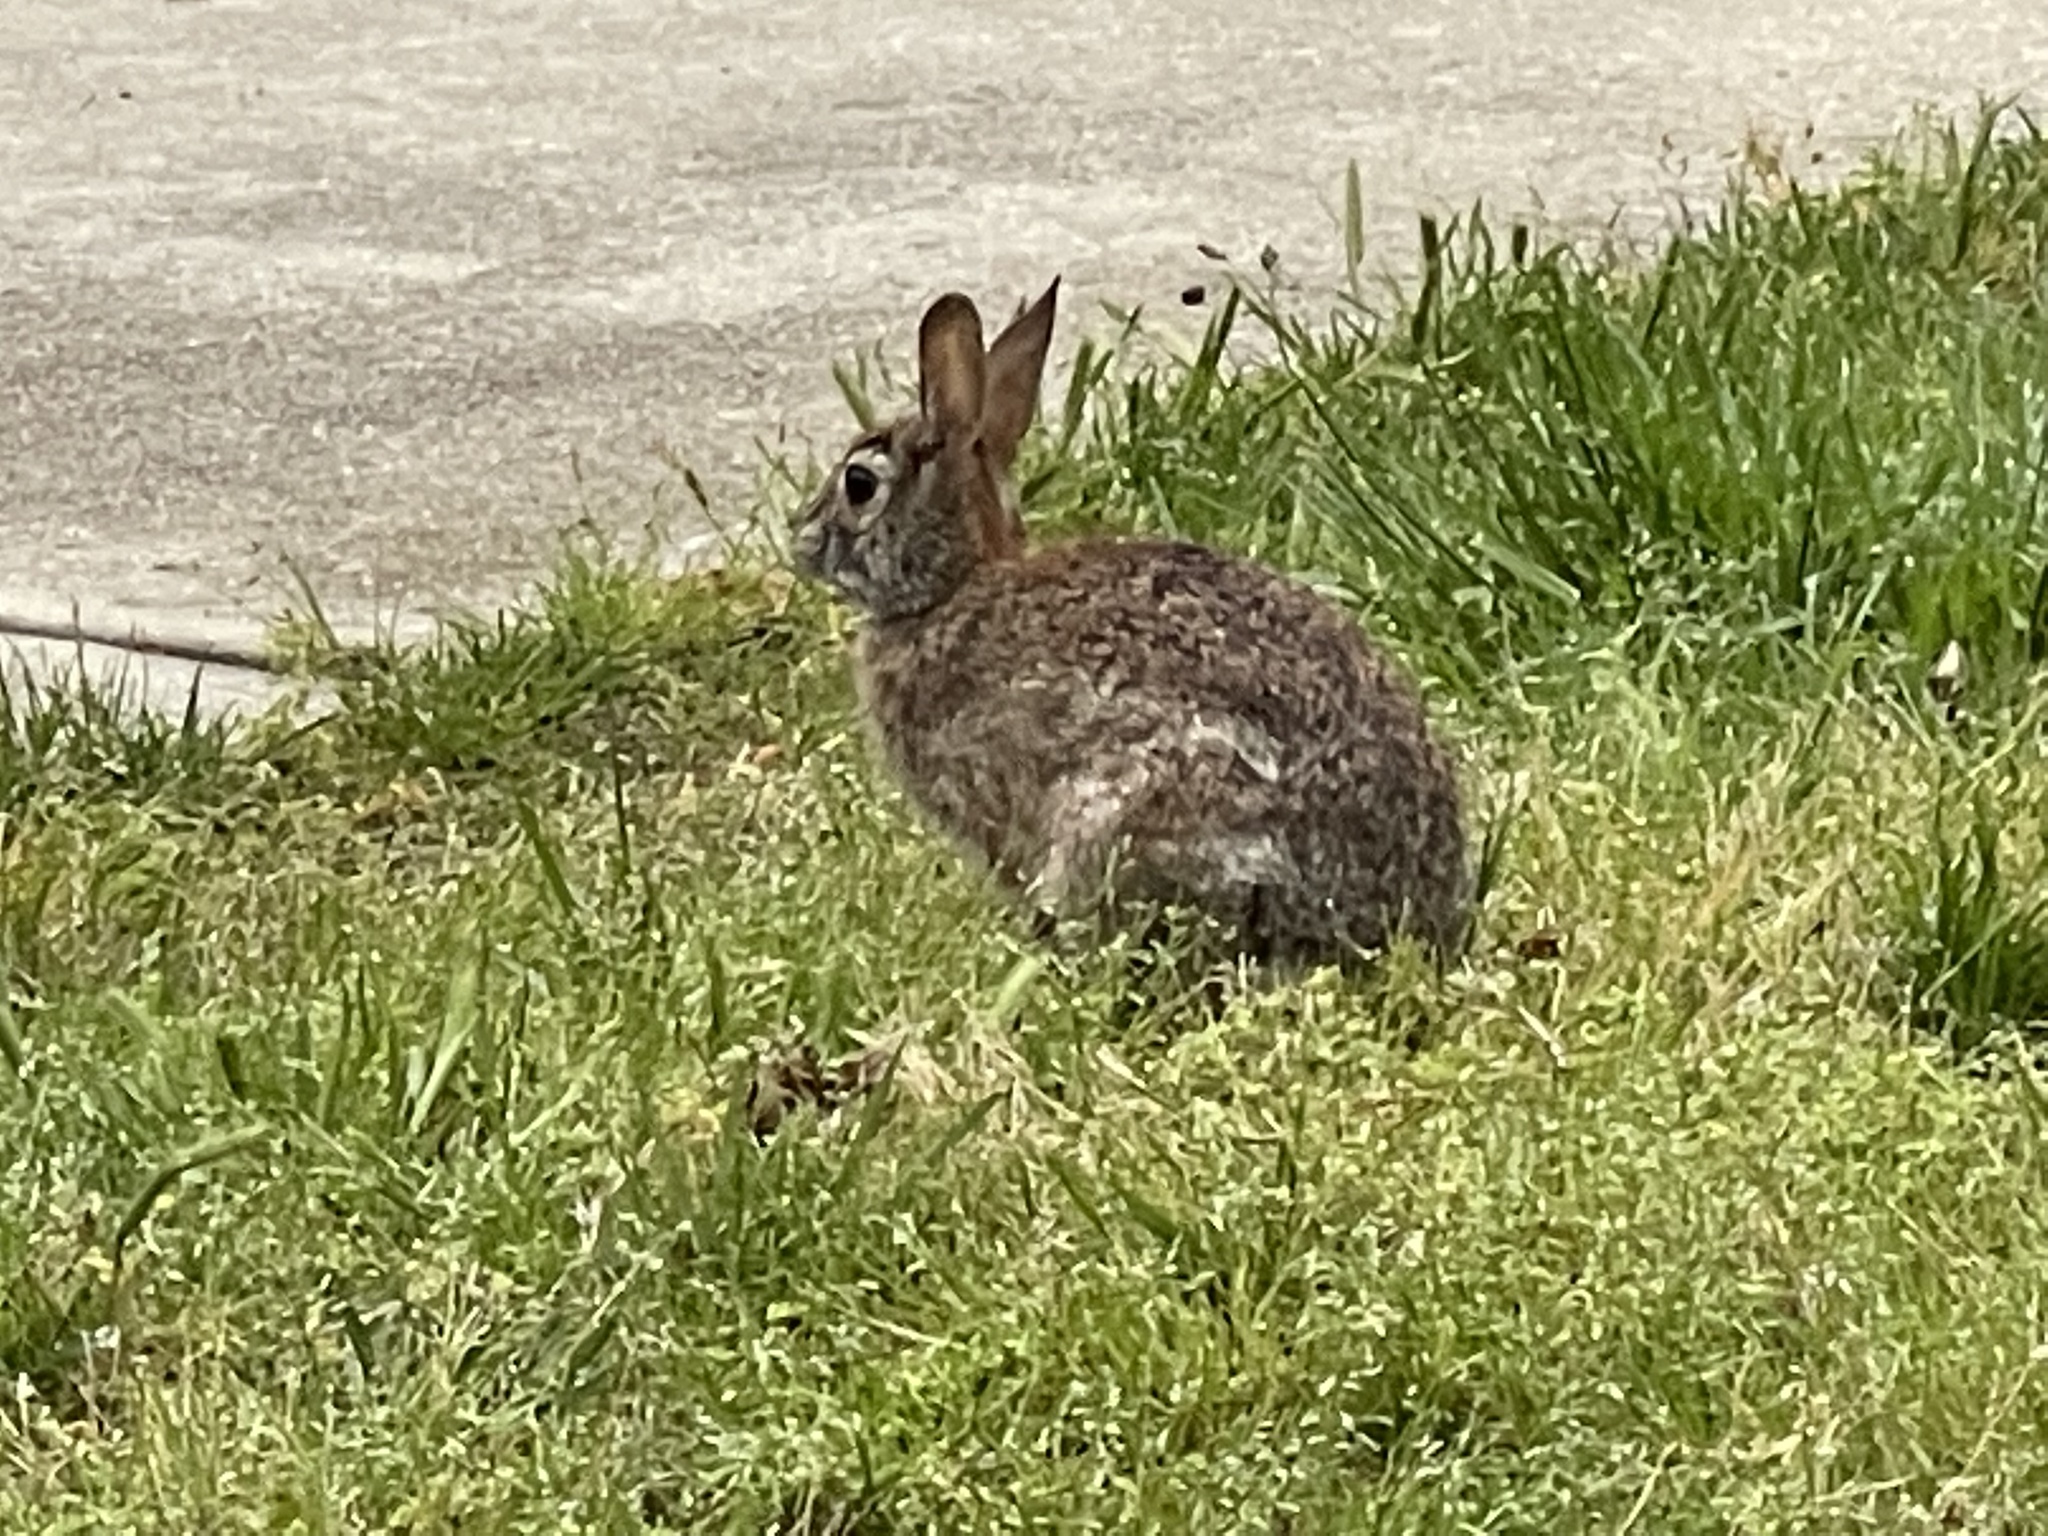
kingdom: Animalia
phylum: Chordata
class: Mammalia
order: Lagomorpha
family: Leporidae
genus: Sylvilagus
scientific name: Sylvilagus floridanus
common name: Eastern cottontail
